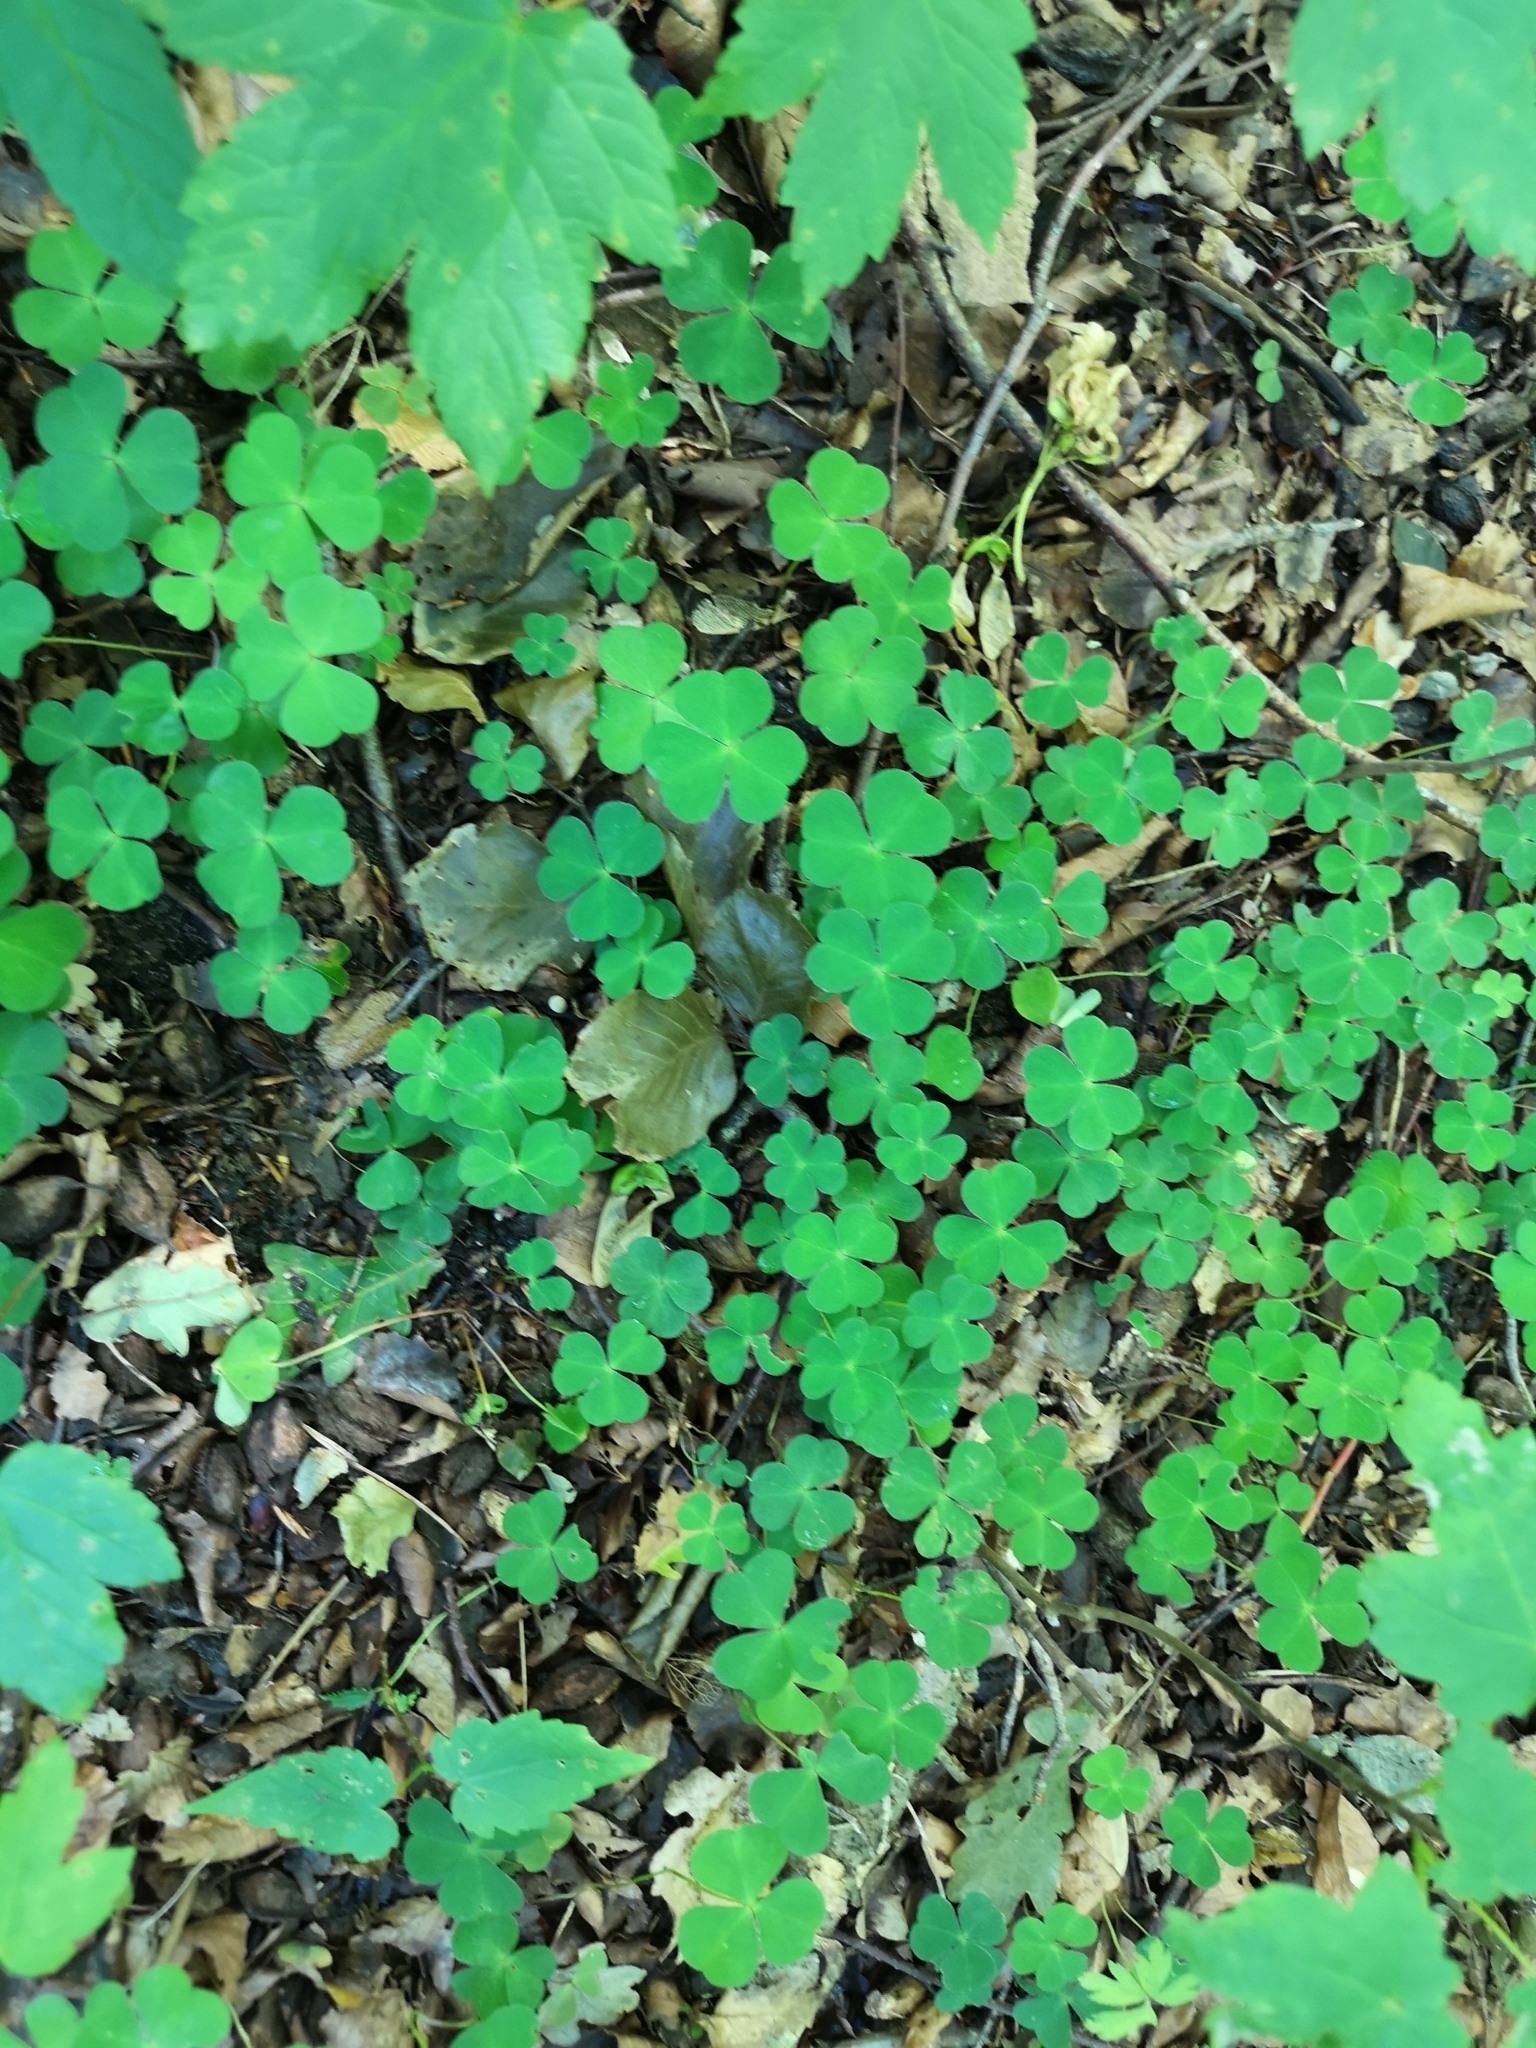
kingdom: Plantae
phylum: Tracheophyta
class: Magnoliopsida
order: Oxalidales
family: Oxalidaceae
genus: Oxalis
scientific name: Oxalis acetosella
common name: Wood-sorrel
